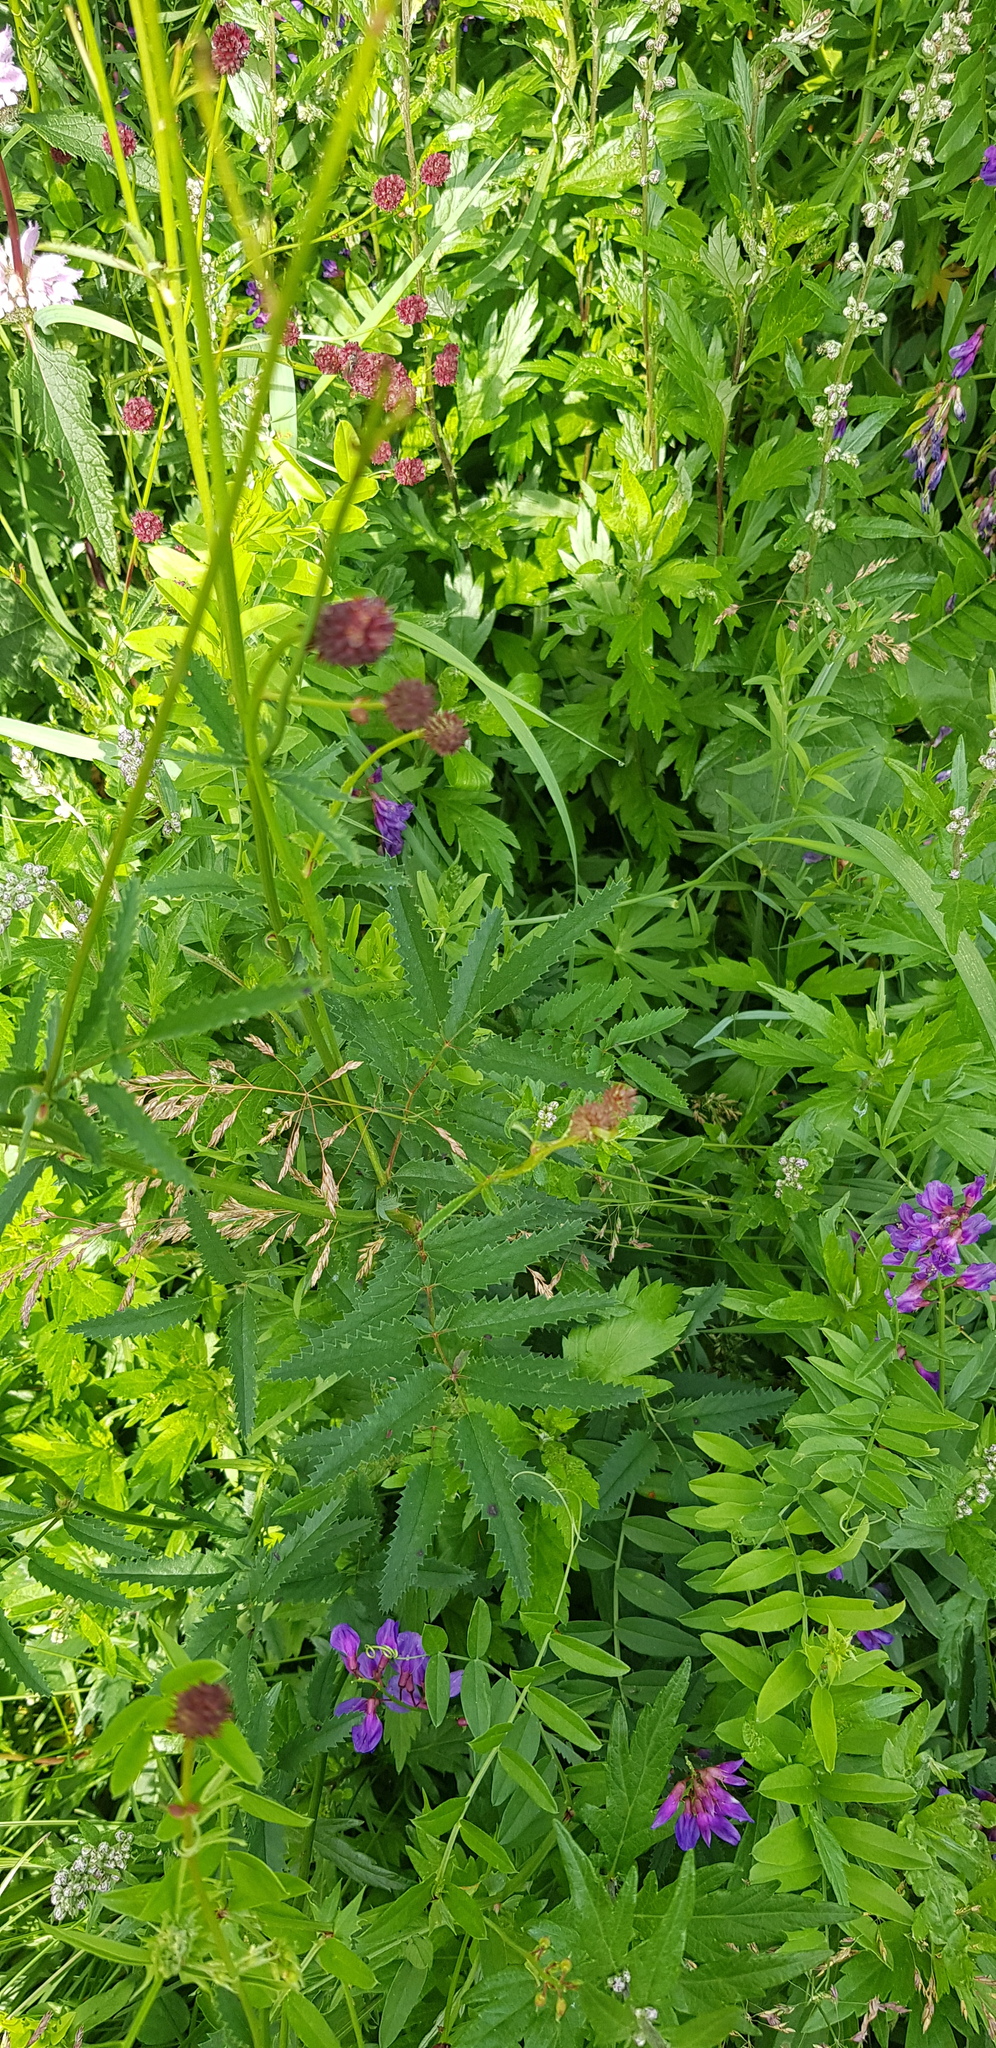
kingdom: Plantae
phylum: Tracheophyta
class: Magnoliopsida
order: Rosales
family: Rosaceae
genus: Sanguisorba
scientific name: Sanguisorba officinalis
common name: Great burnet
